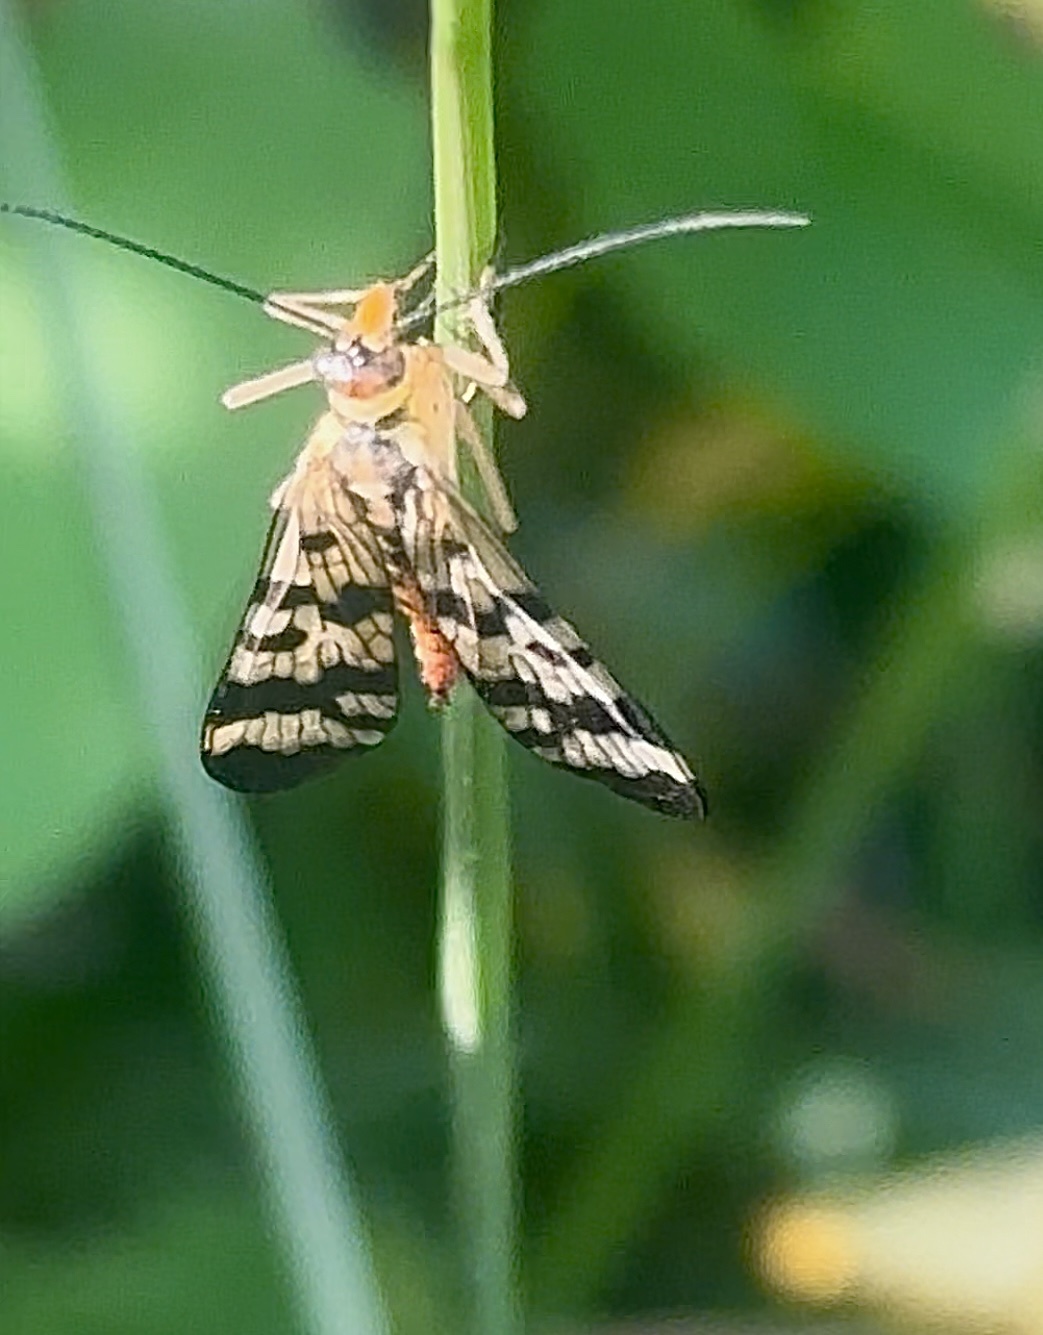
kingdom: Animalia
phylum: Arthropoda
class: Insecta
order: Mecoptera
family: Panorpidae
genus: Panorpa
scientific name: Panorpa communis
